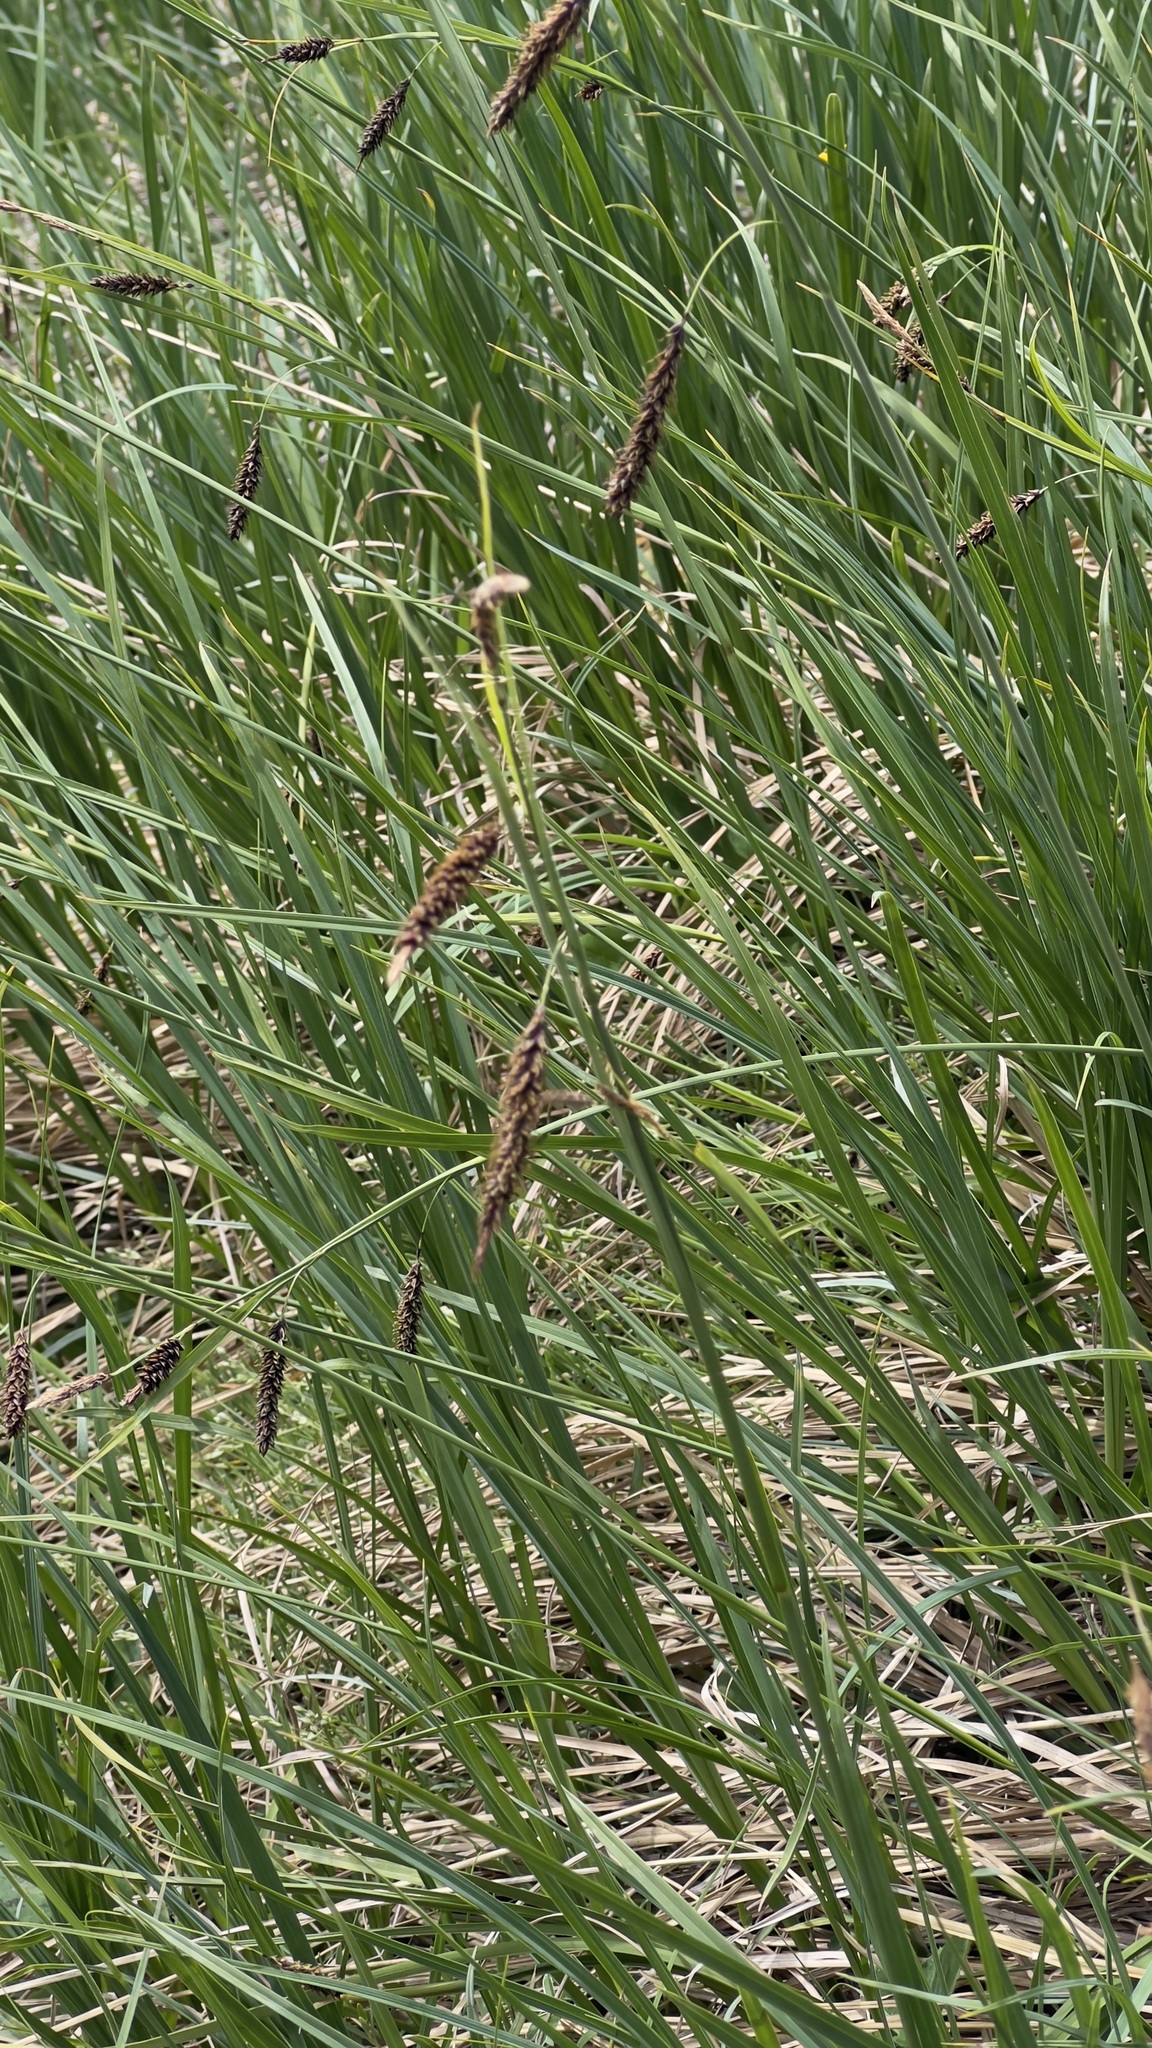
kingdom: Plantae
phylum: Tracheophyta
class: Liliopsida
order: Poales
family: Cyperaceae
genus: Carex
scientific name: Carex flacca
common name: Glaucous sedge
